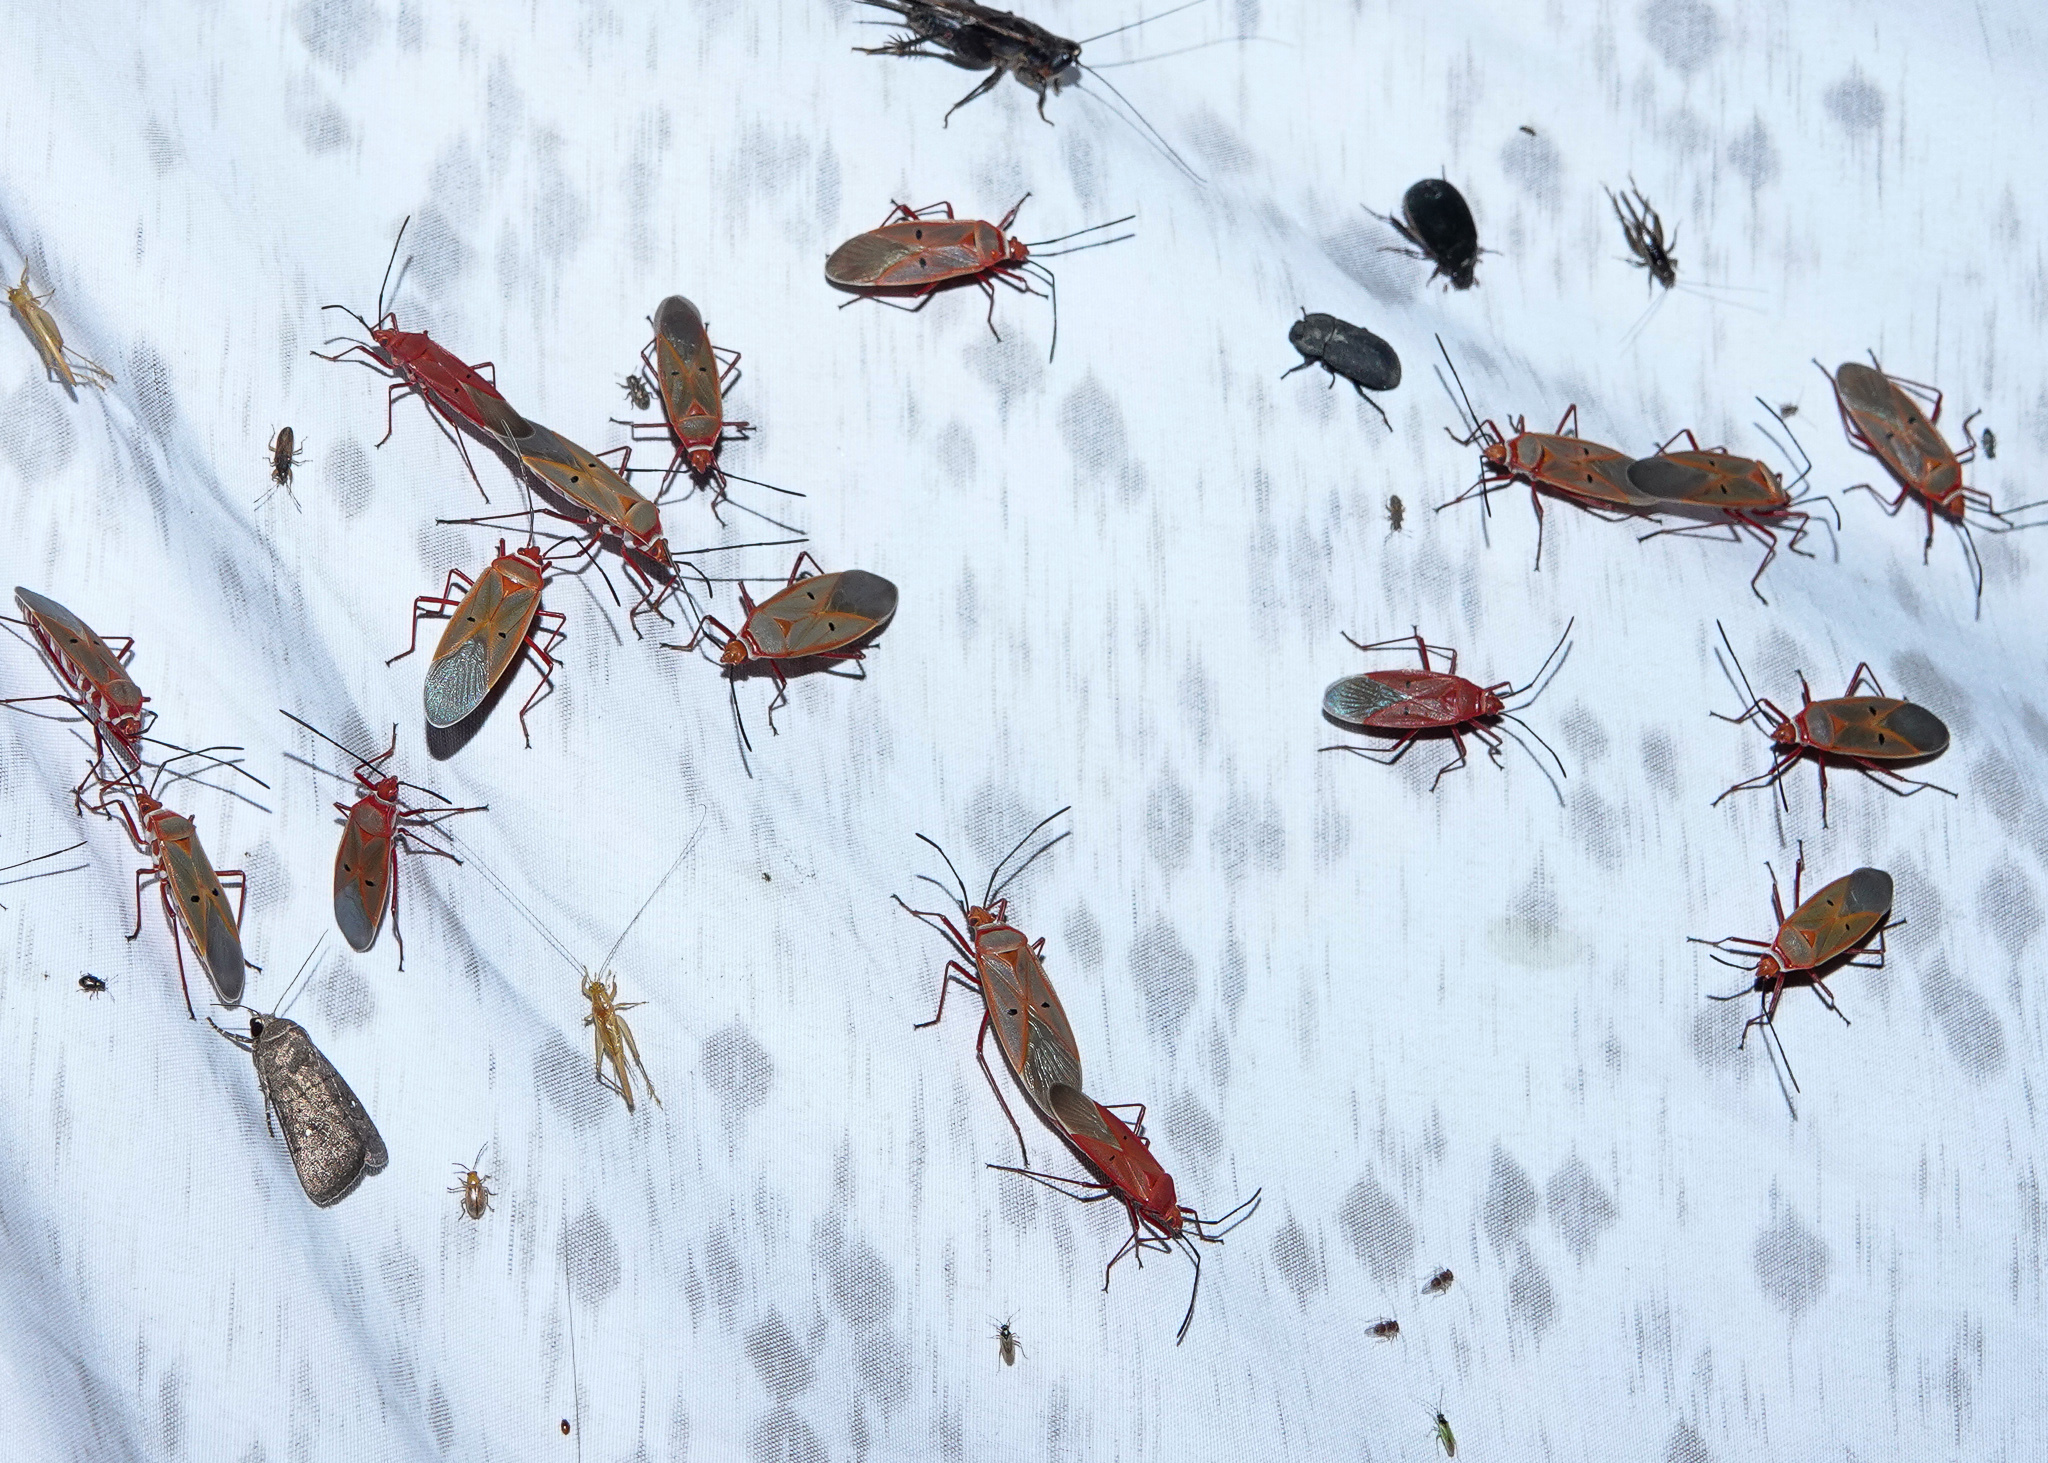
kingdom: Animalia
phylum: Arthropoda
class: Insecta
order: Hemiptera
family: Pyrrhocoridae
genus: Dysdercus
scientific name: Dysdercus evanescens
